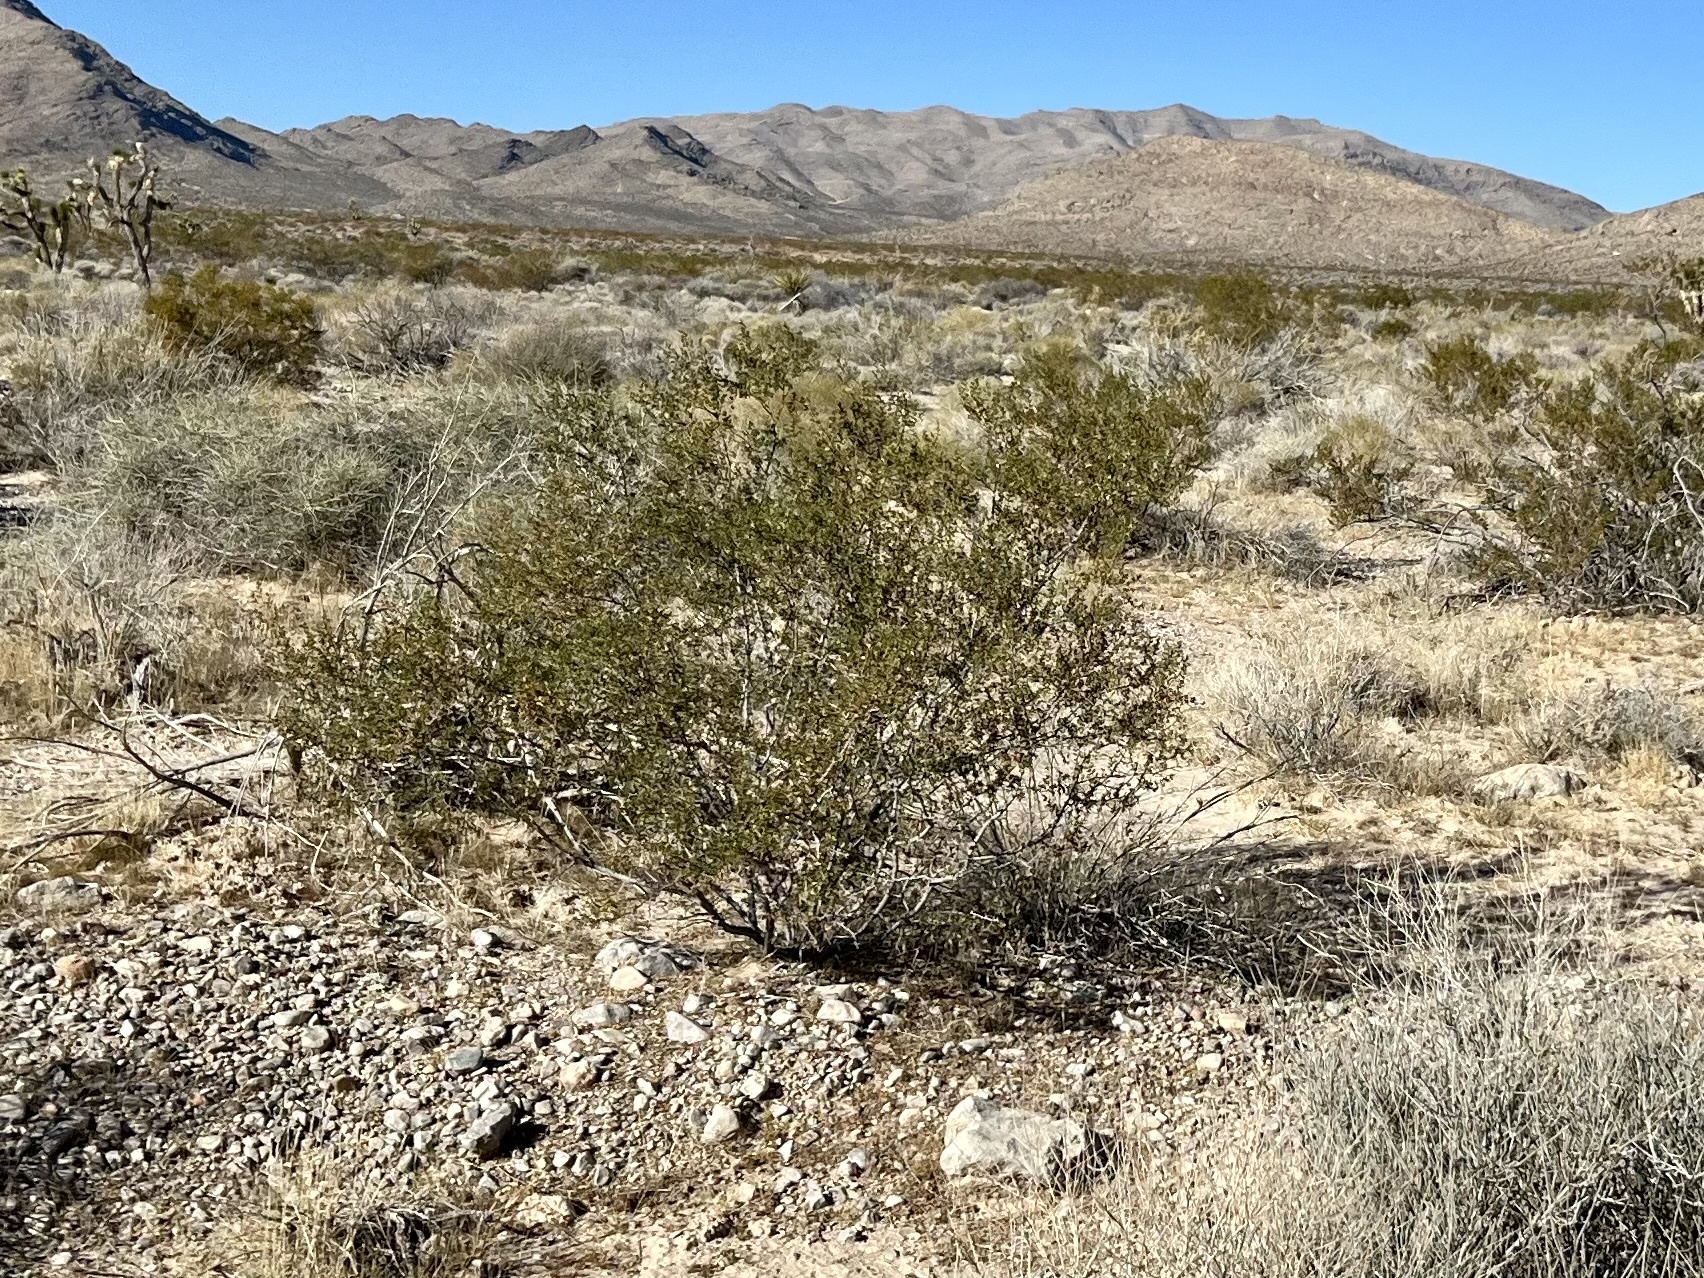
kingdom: Plantae
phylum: Tracheophyta
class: Magnoliopsida
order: Zygophyllales
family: Zygophyllaceae
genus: Larrea
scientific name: Larrea tridentata
